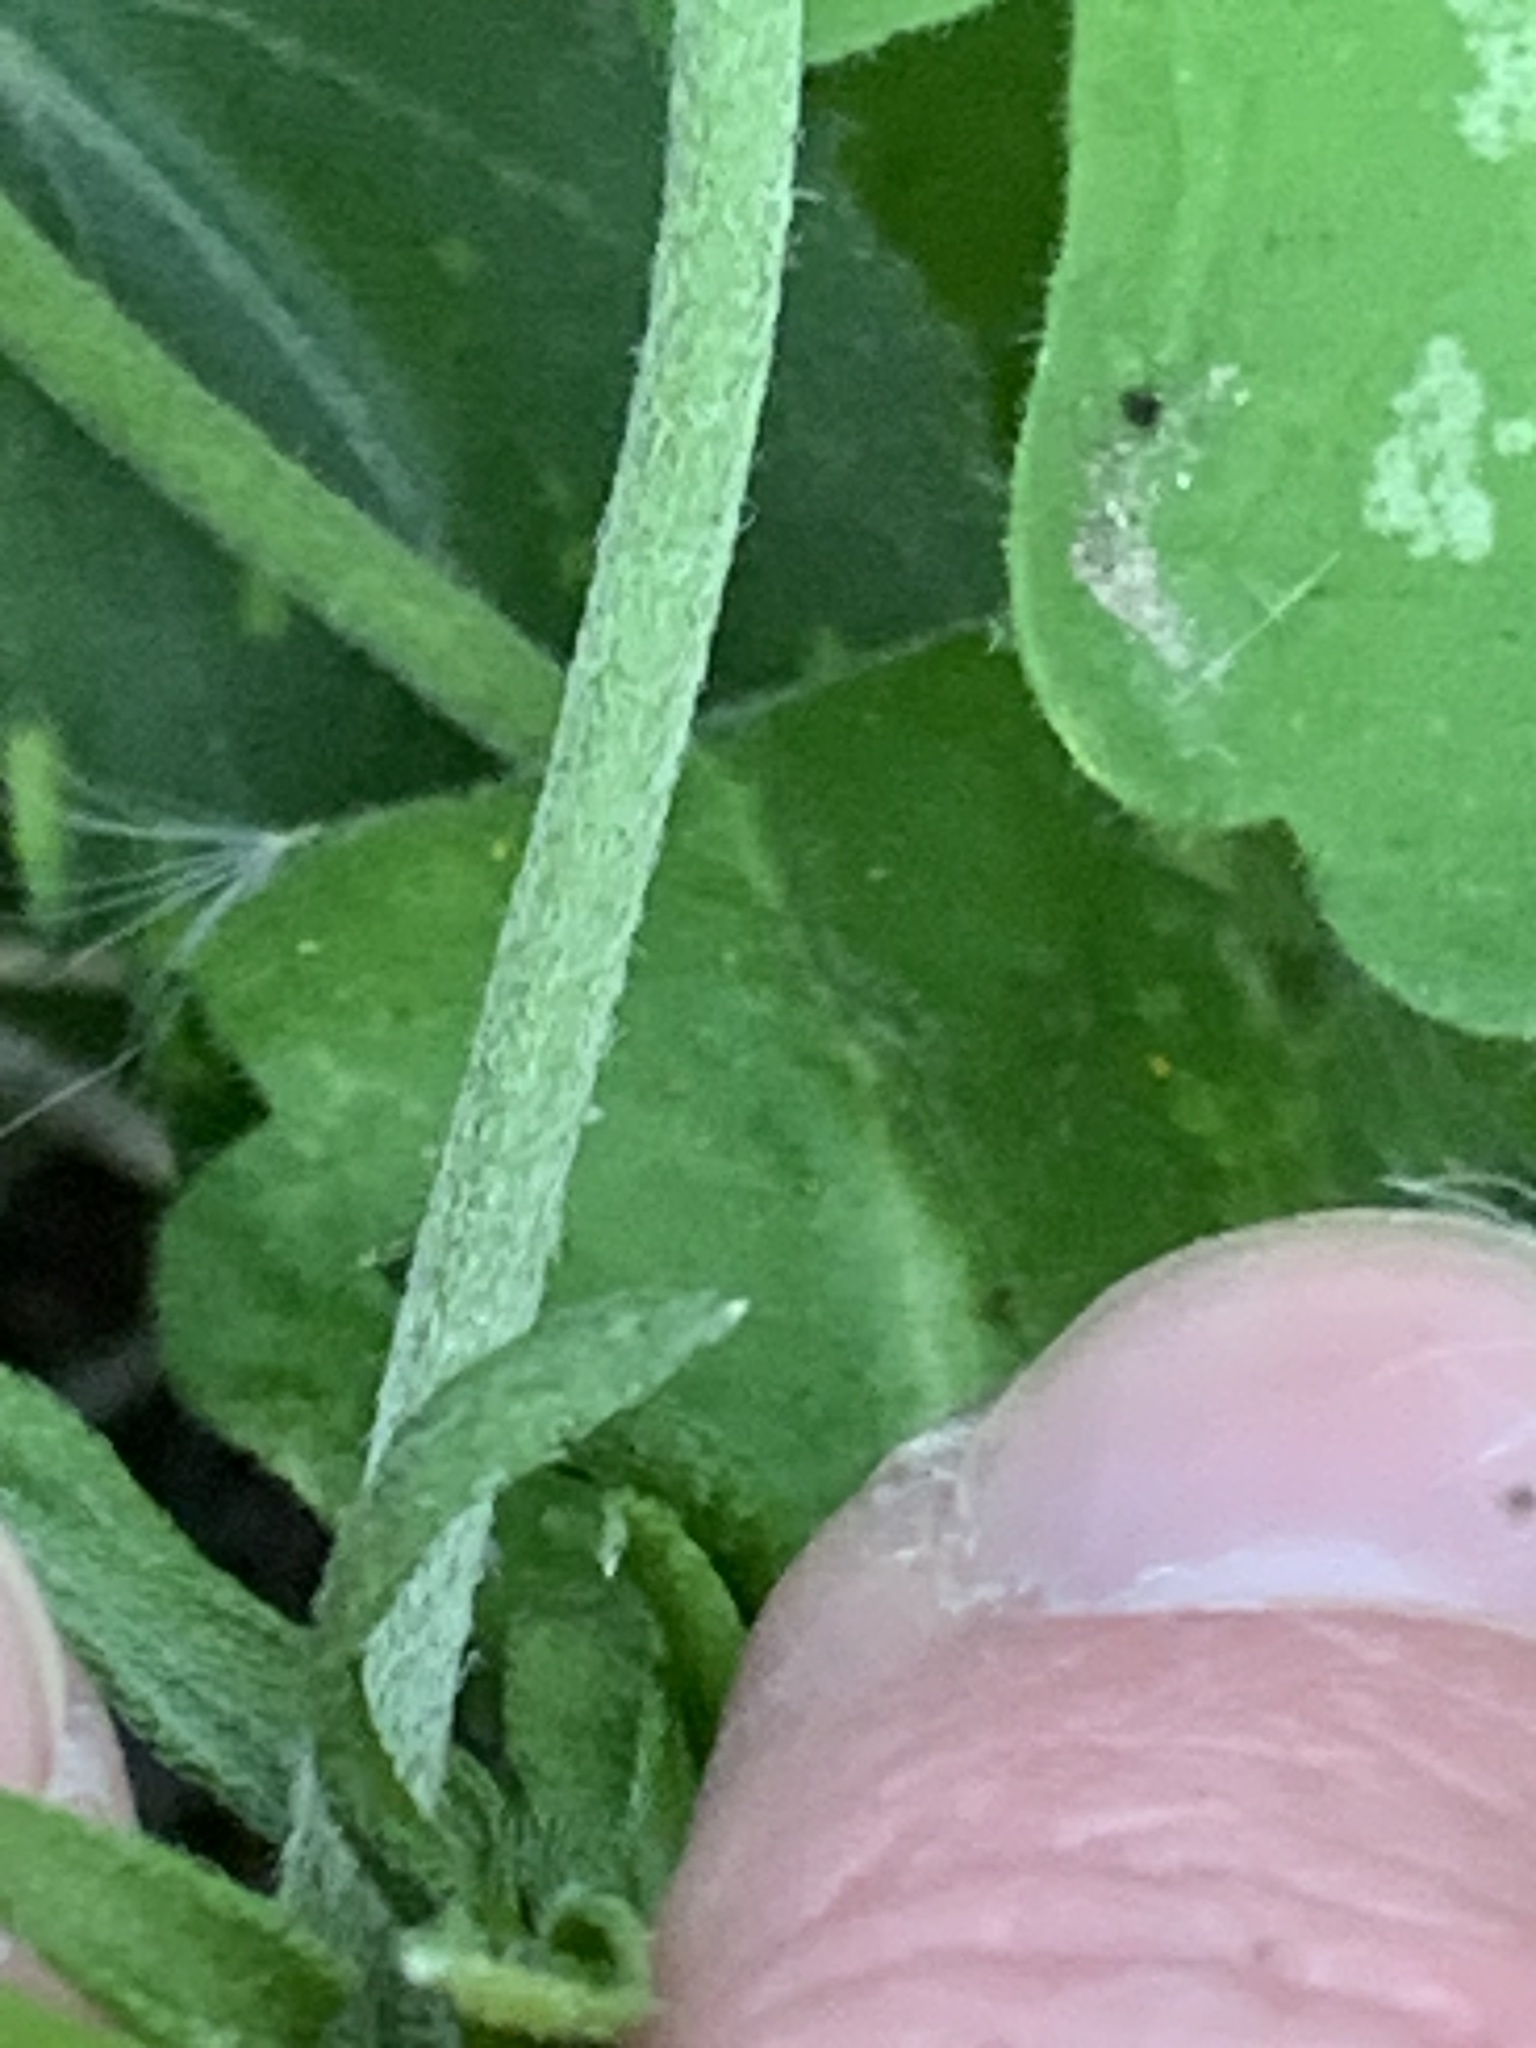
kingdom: Plantae
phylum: Tracheophyta
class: Magnoliopsida
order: Asterales
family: Asteraceae
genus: Verbesina
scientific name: Verbesina encelioides
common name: Golden crownbeard
